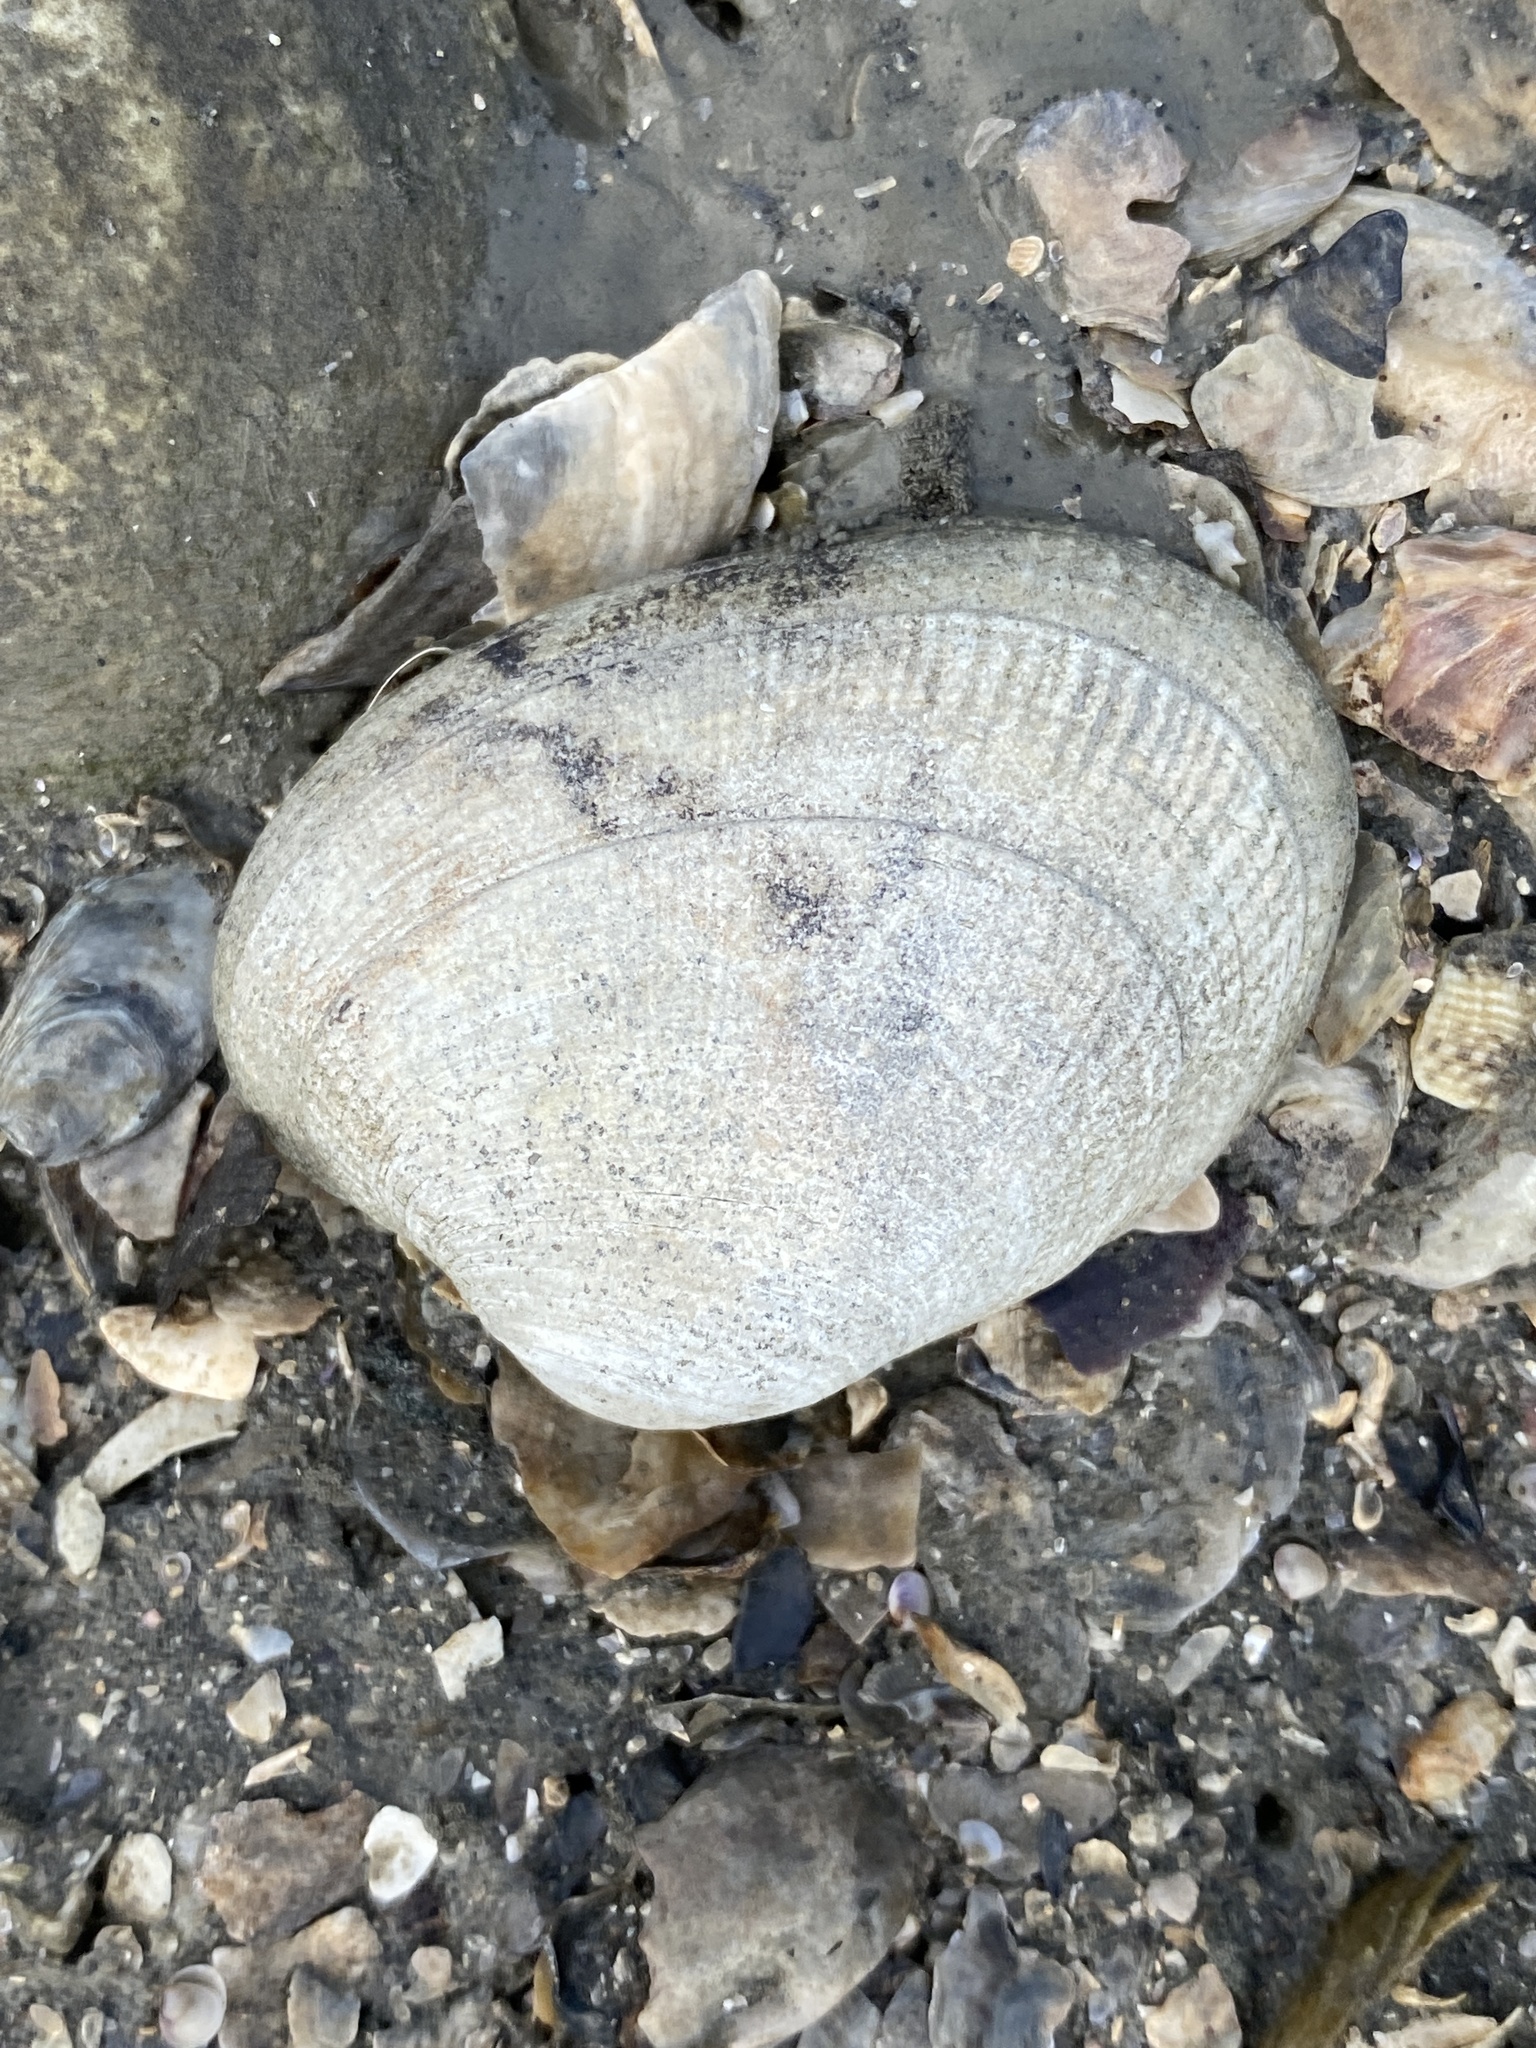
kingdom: Animalia
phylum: Mollusca
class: Bivalvia
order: Venerida
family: Veneridae
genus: Ruditapes
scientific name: Ruditapes philippinarum
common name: Manila clam
